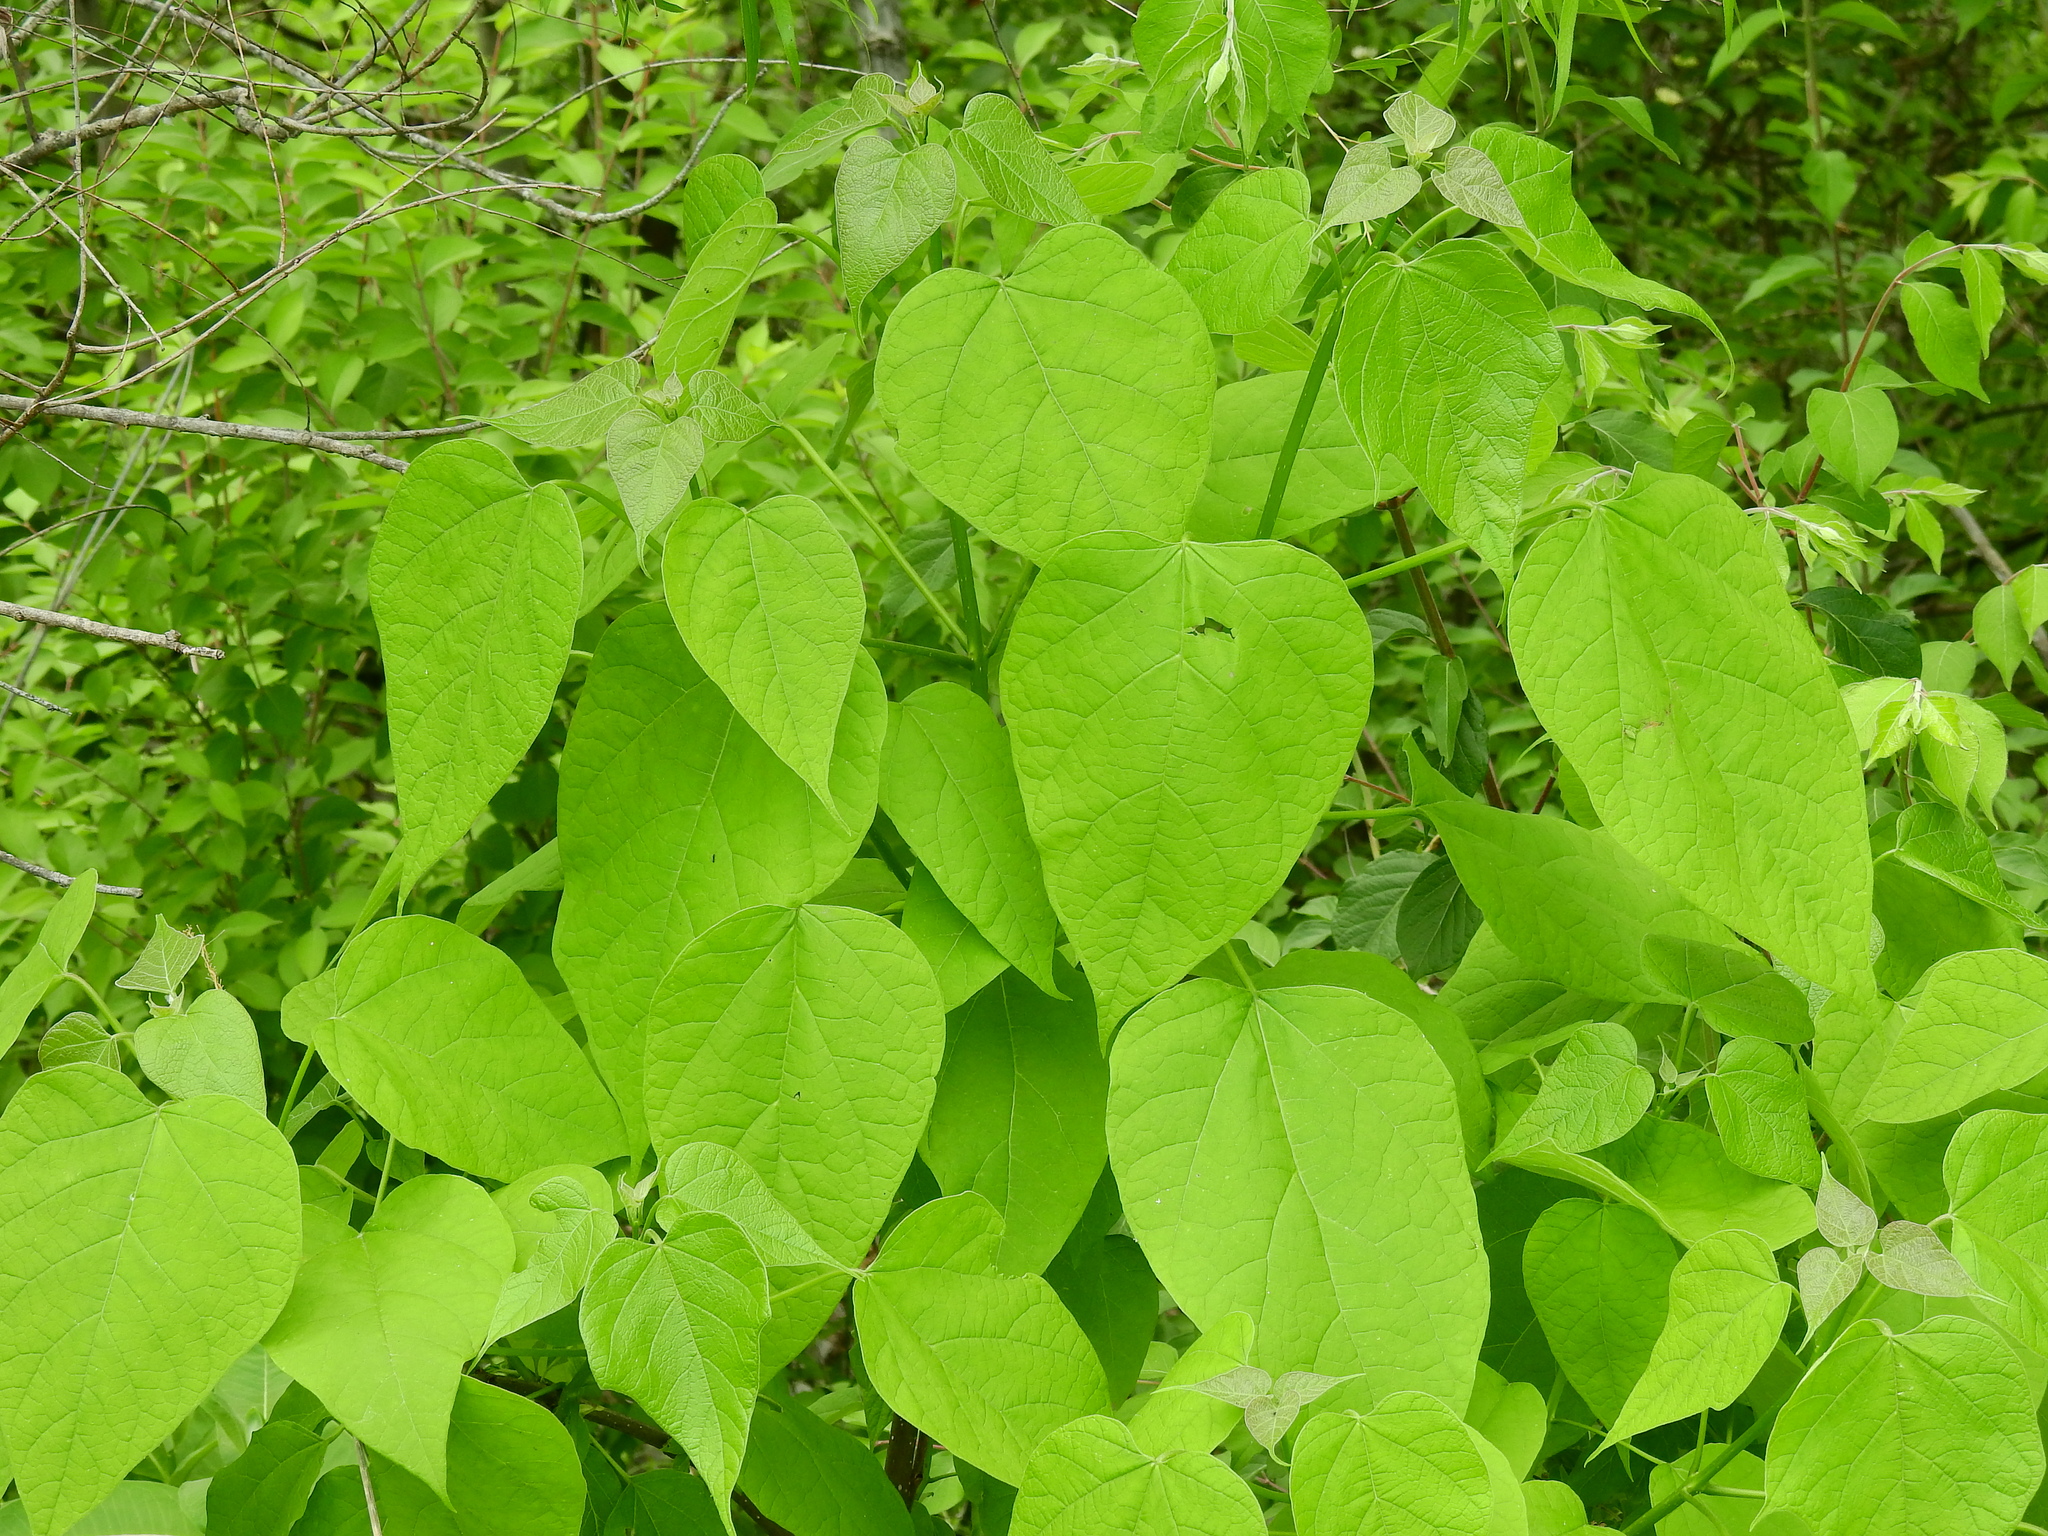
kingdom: Plantae
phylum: Tracheophyta
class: Magnoliopsida
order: Lamiales
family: Bignoniaceae
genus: Catalpa
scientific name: Catalpa speciosa
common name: Northern catalpa
